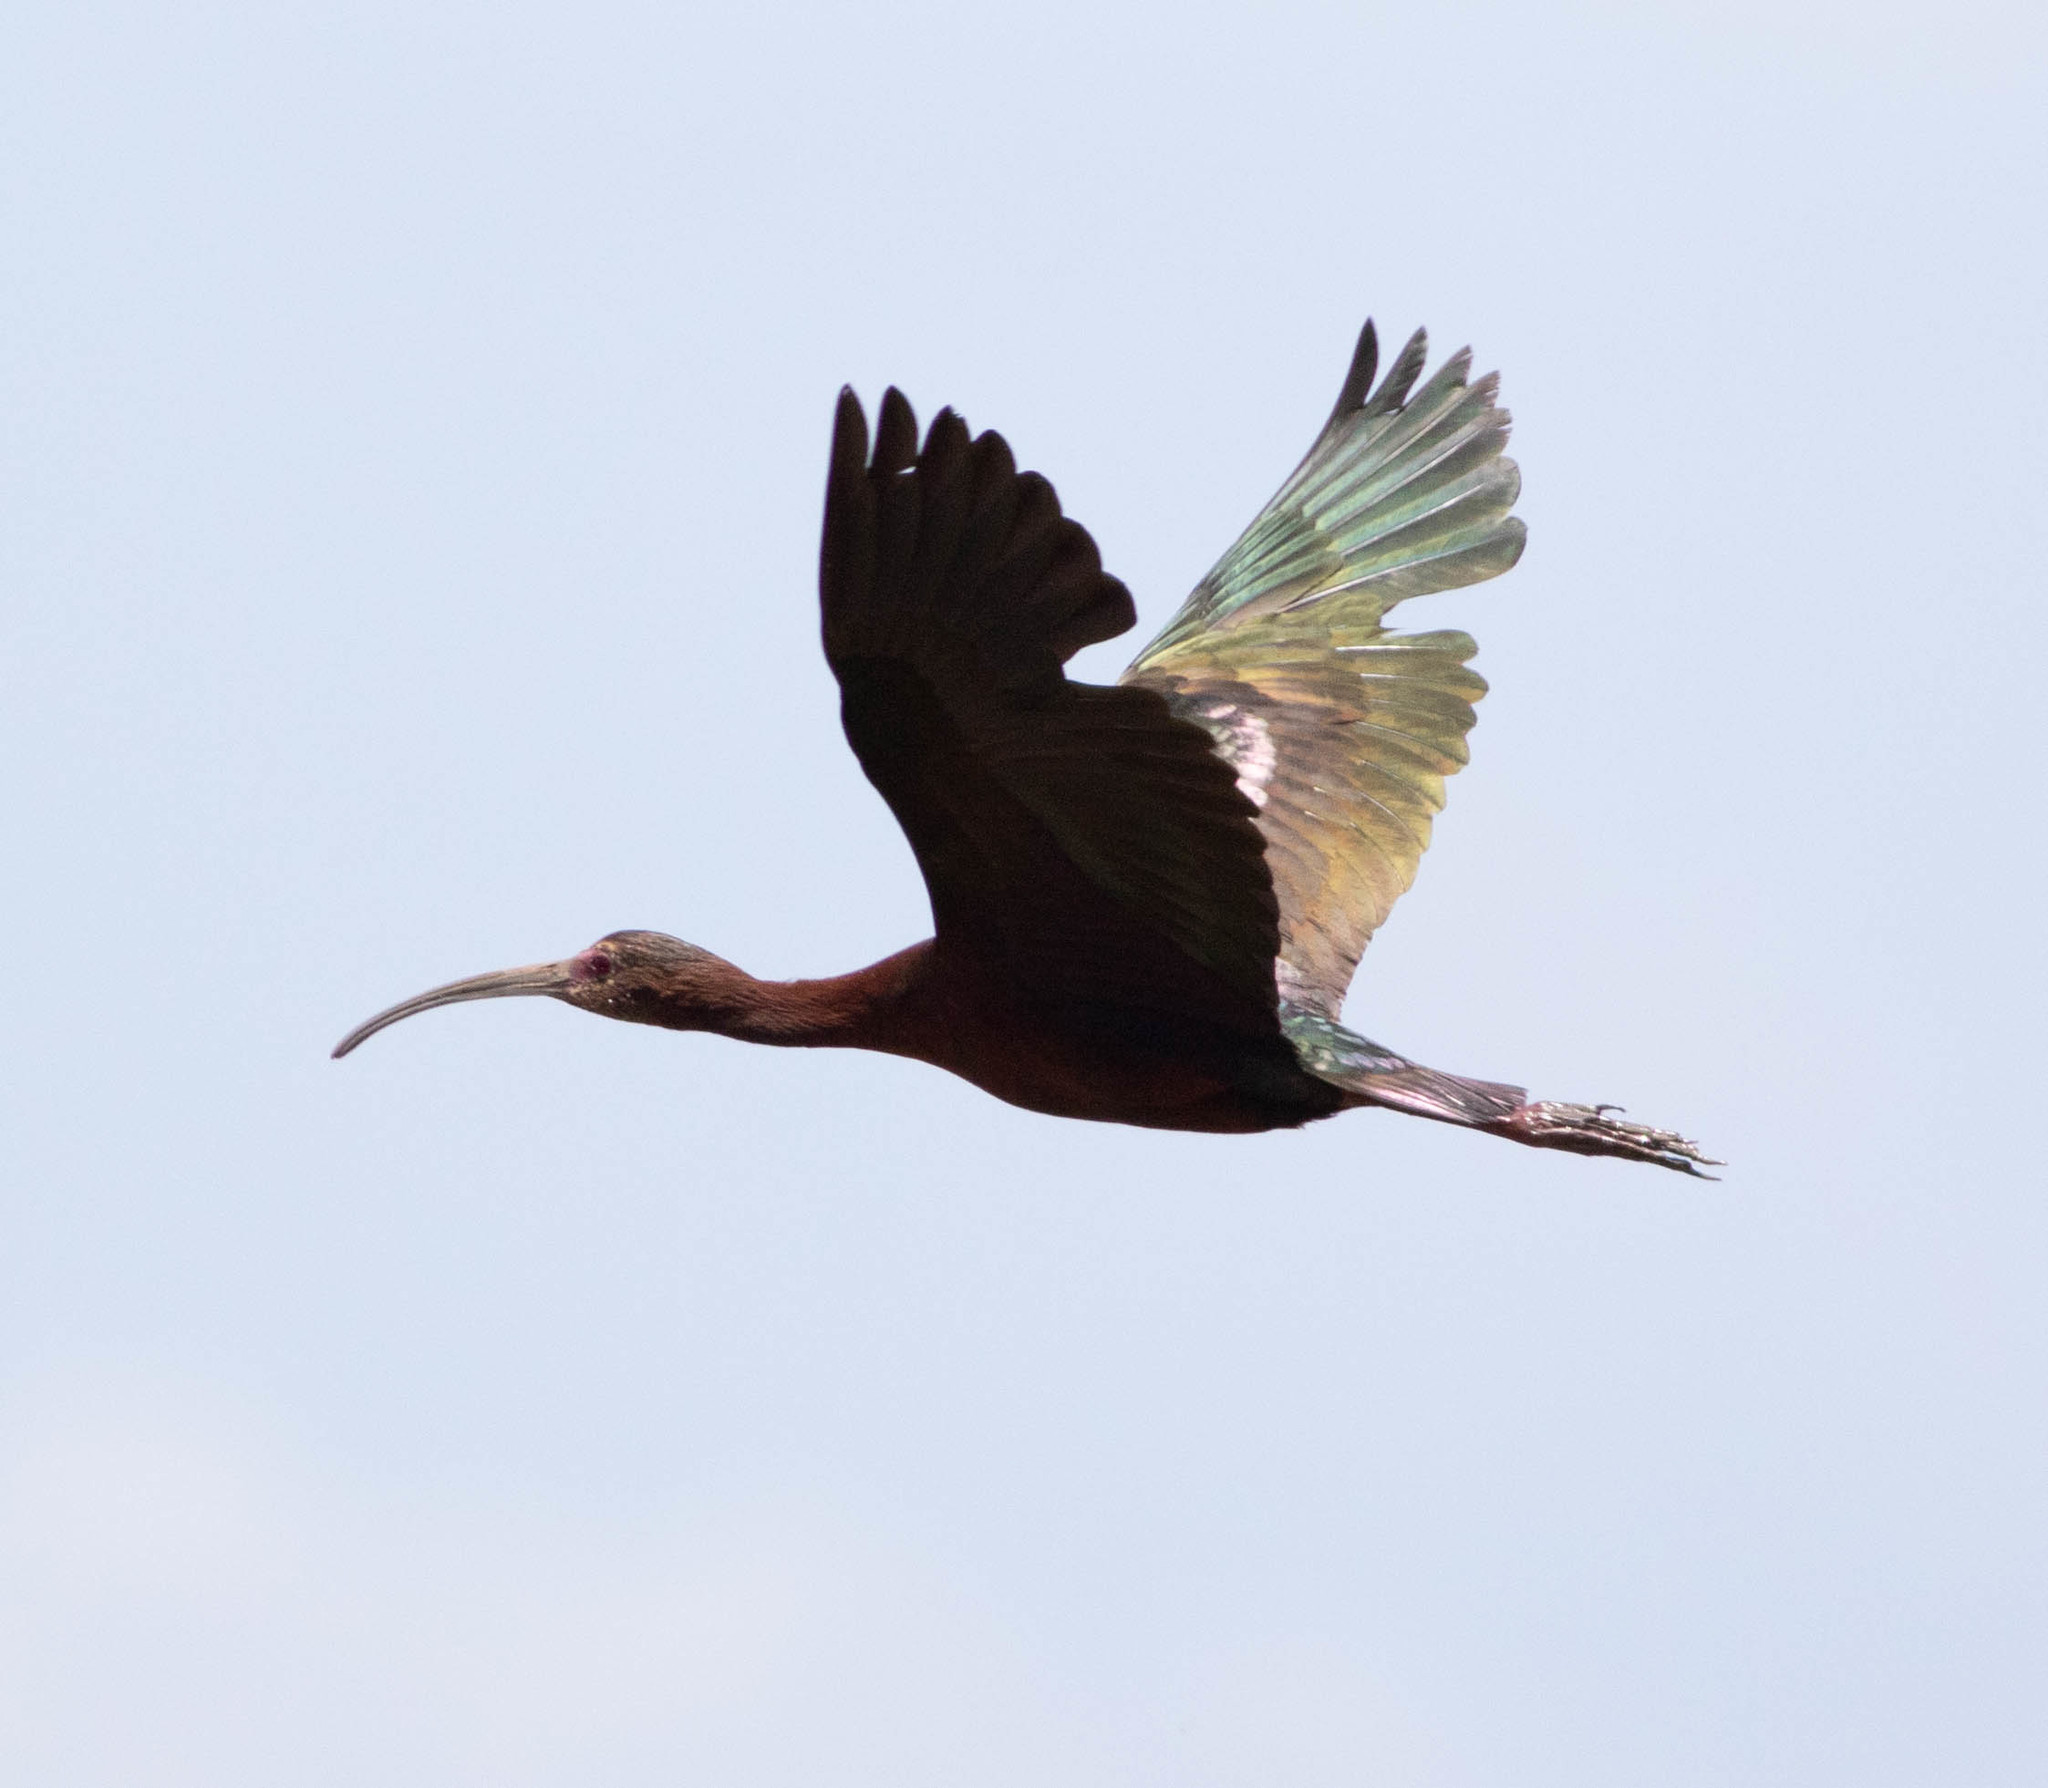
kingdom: Animalia
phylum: Chordata
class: Aves
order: Pelecaniformes
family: Threskiornithidae
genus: Plegadis
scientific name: Plegadis chihi
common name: White-faced ibis
